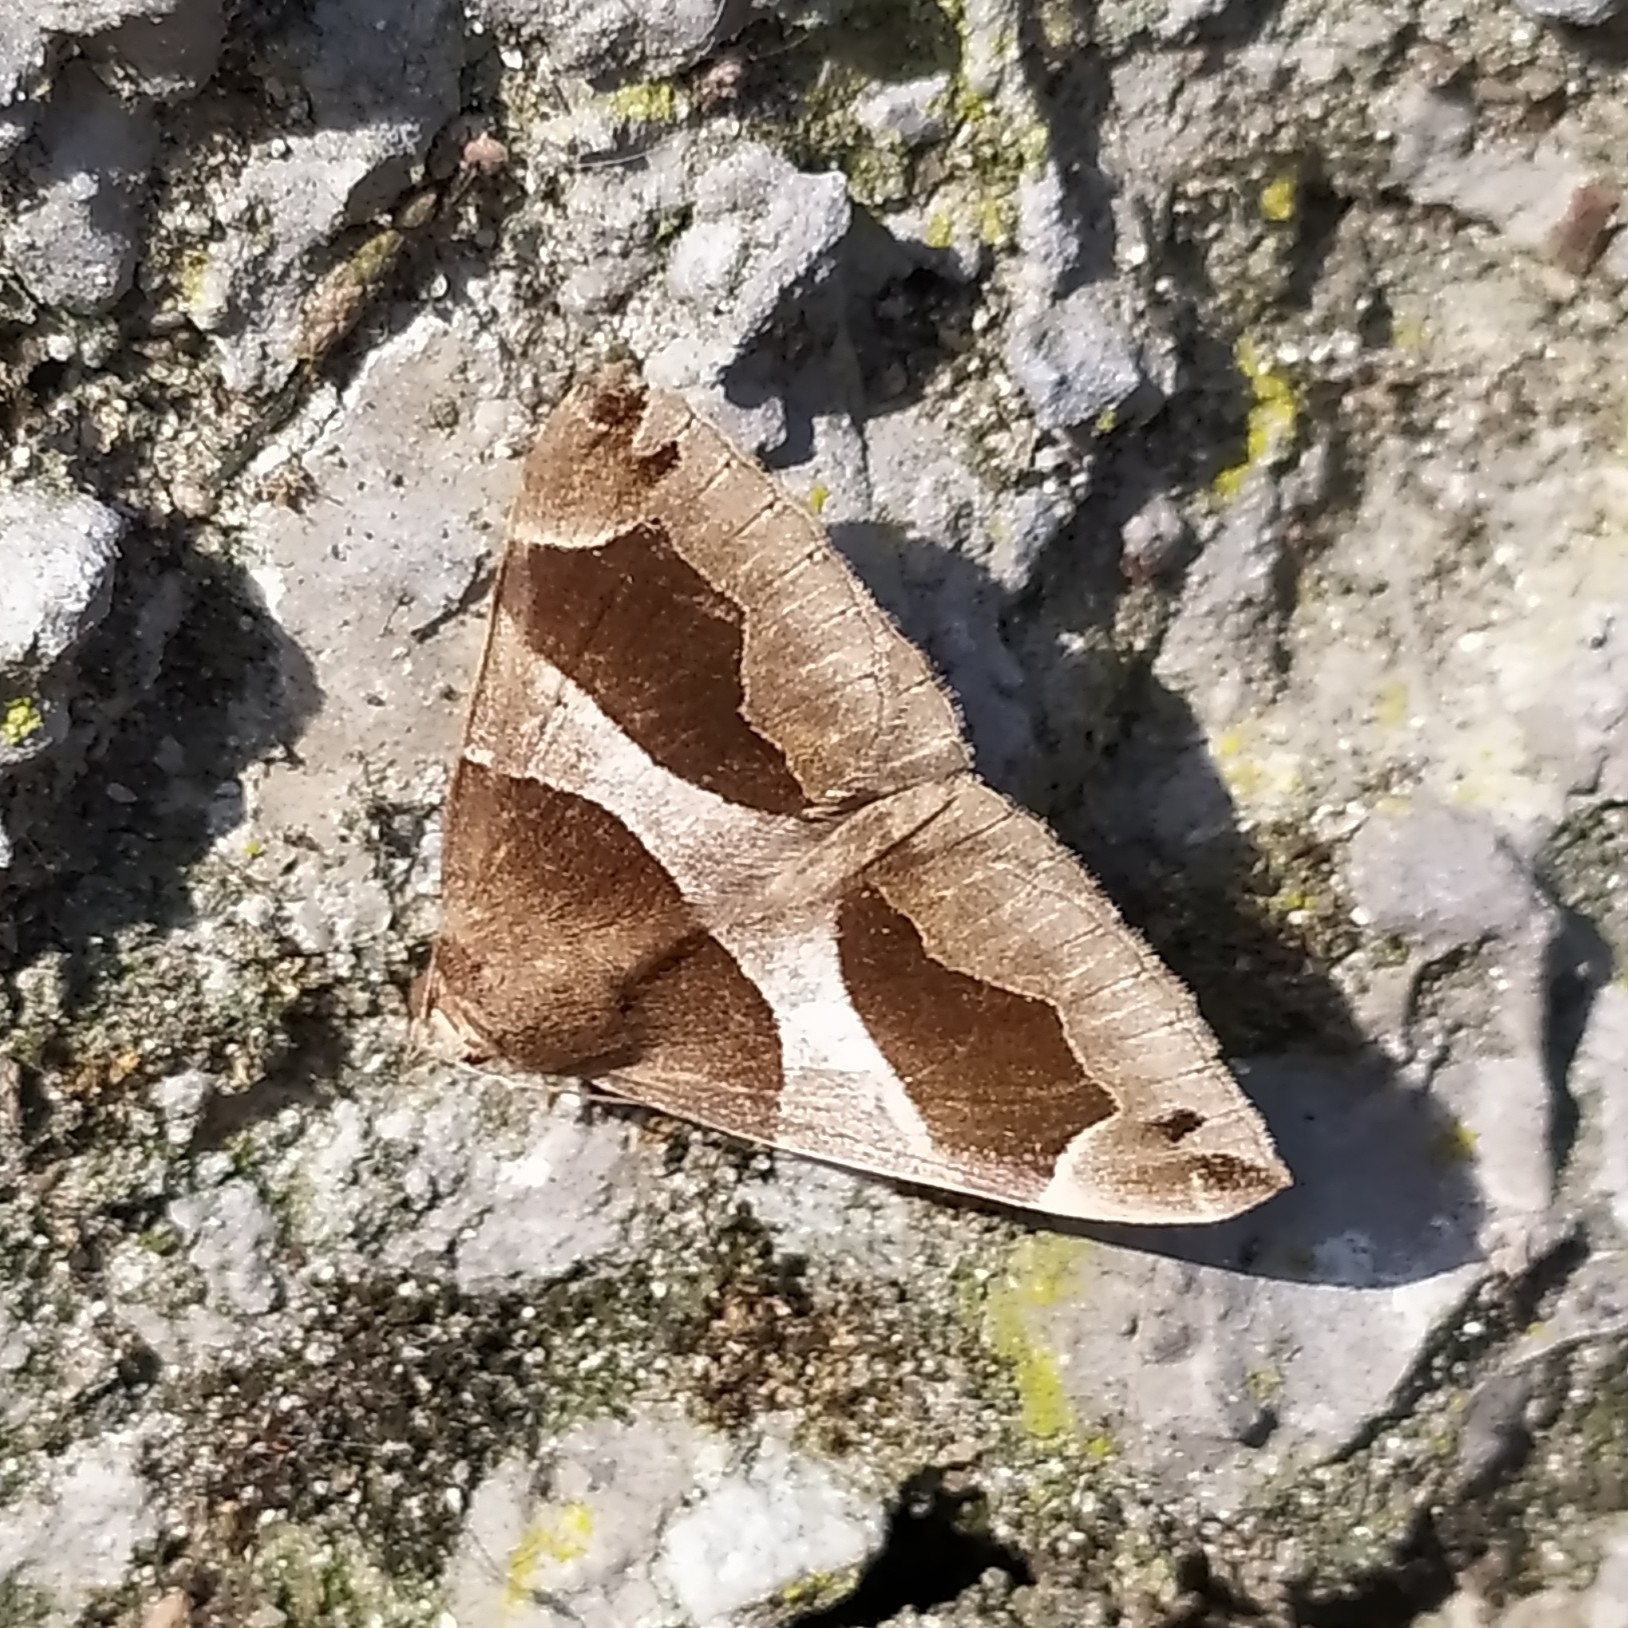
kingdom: Animalia
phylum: Arthropoda
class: Insecta
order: Lepidoptera
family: Erebidae
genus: Dysgonia
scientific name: Dysgonia algira
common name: Passenger
